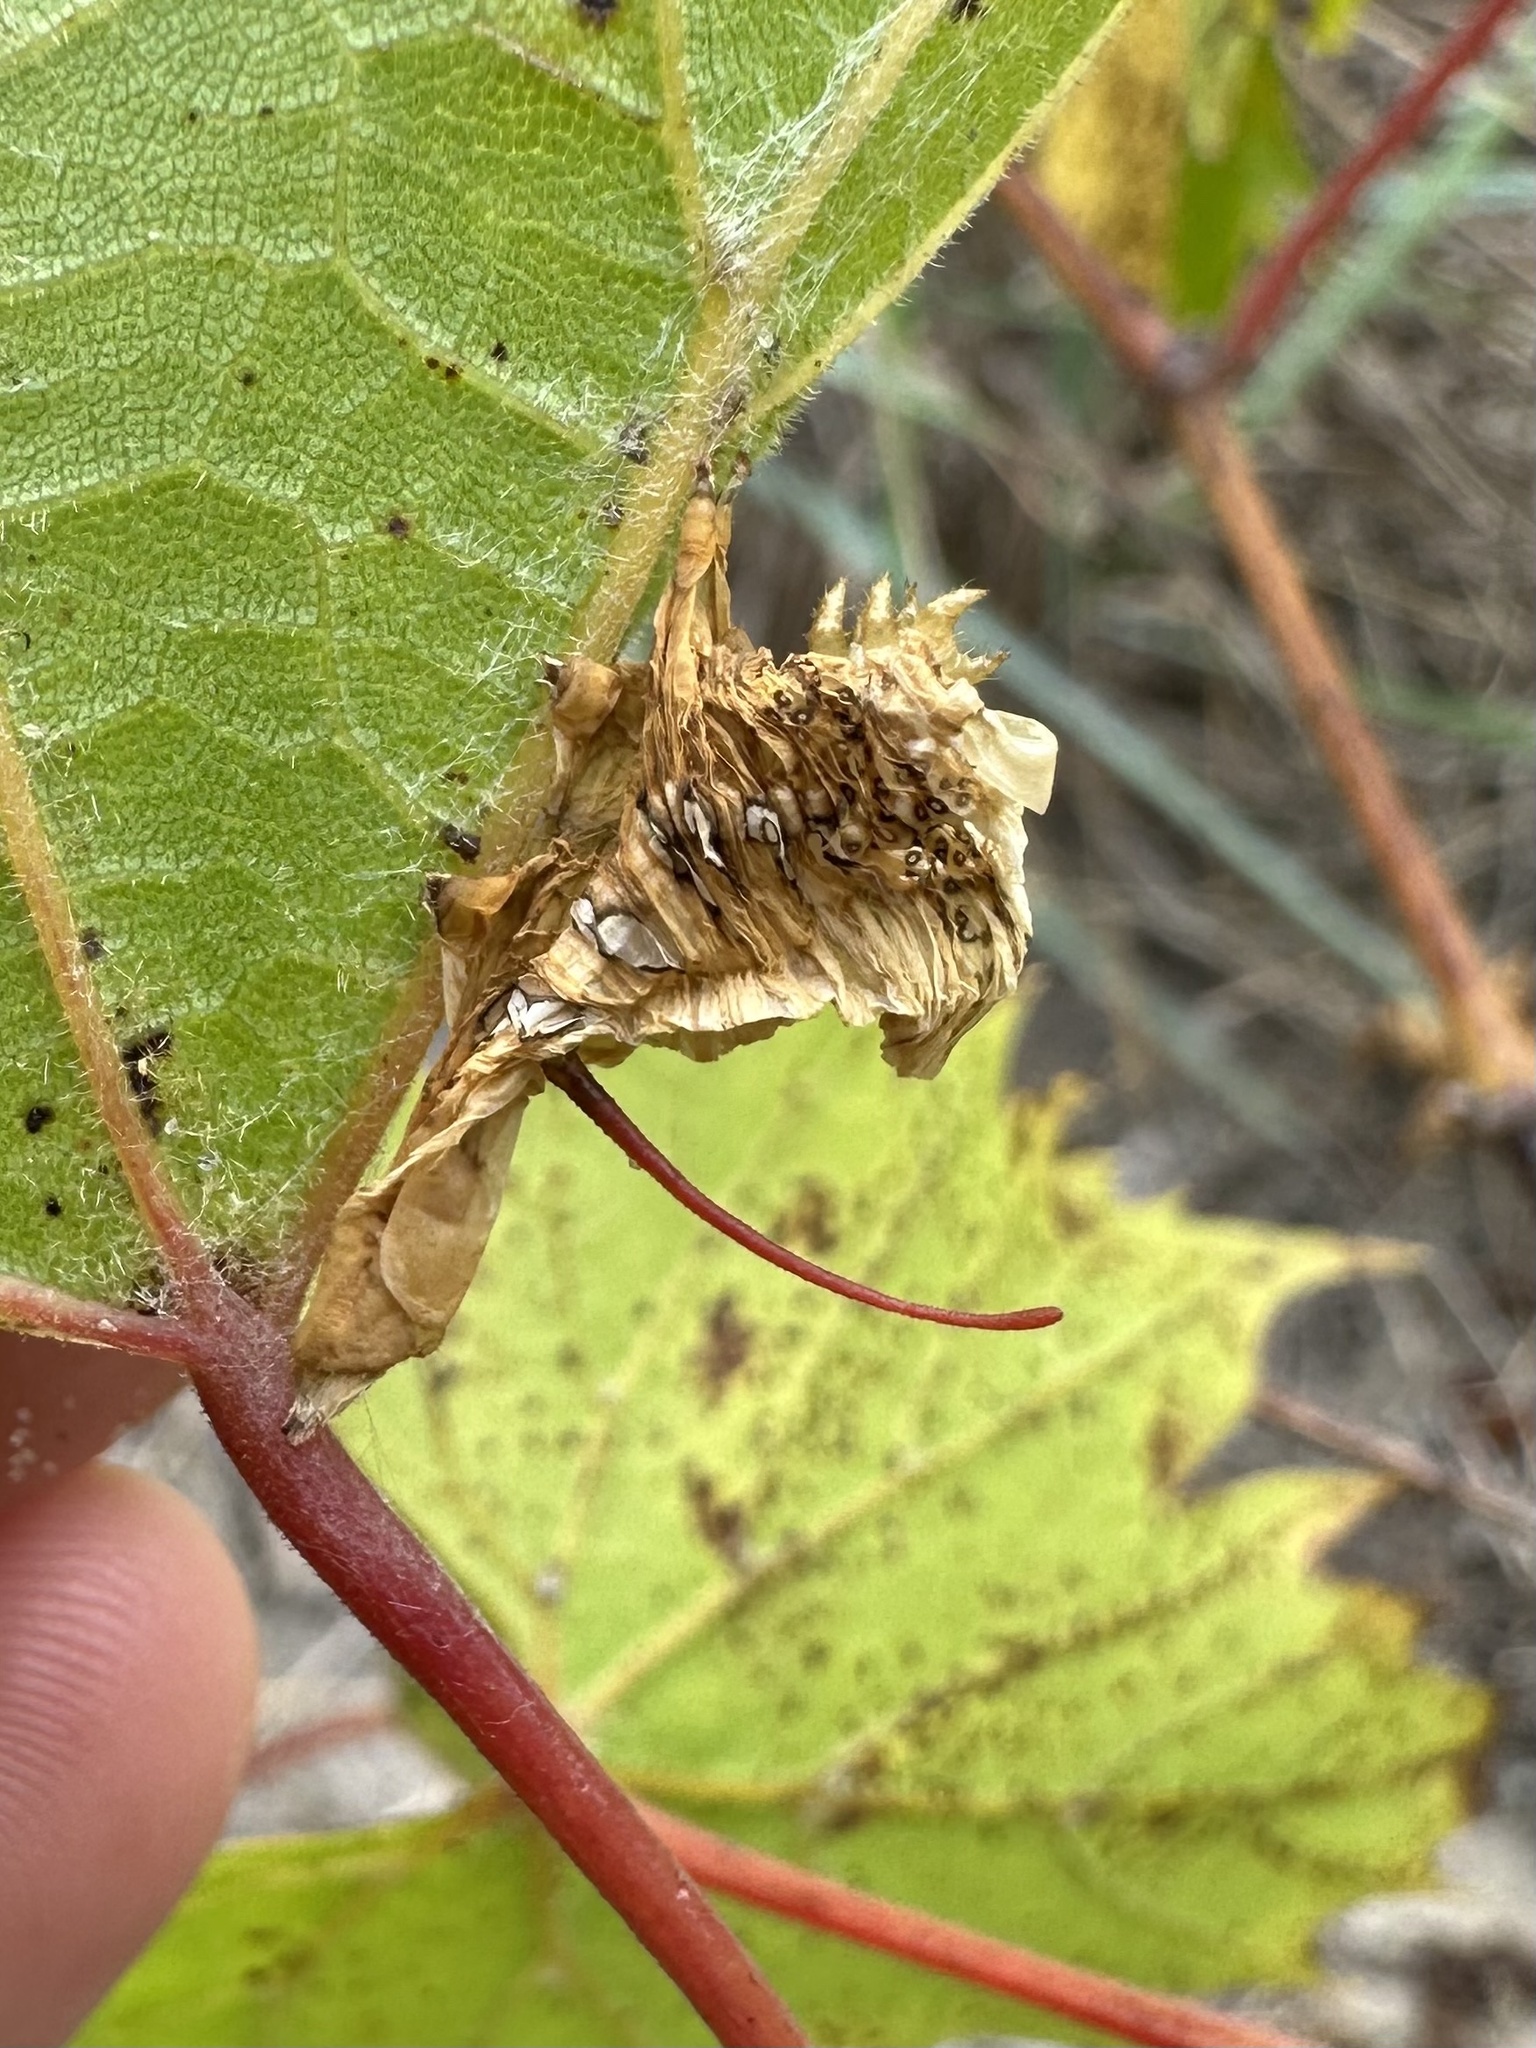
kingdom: Animalia
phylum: Arthropoda
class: Insecta
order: Lepidoptera
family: Sphingidae
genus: Eumorpha
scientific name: Eumorpha achemon
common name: Achemon sphinx
